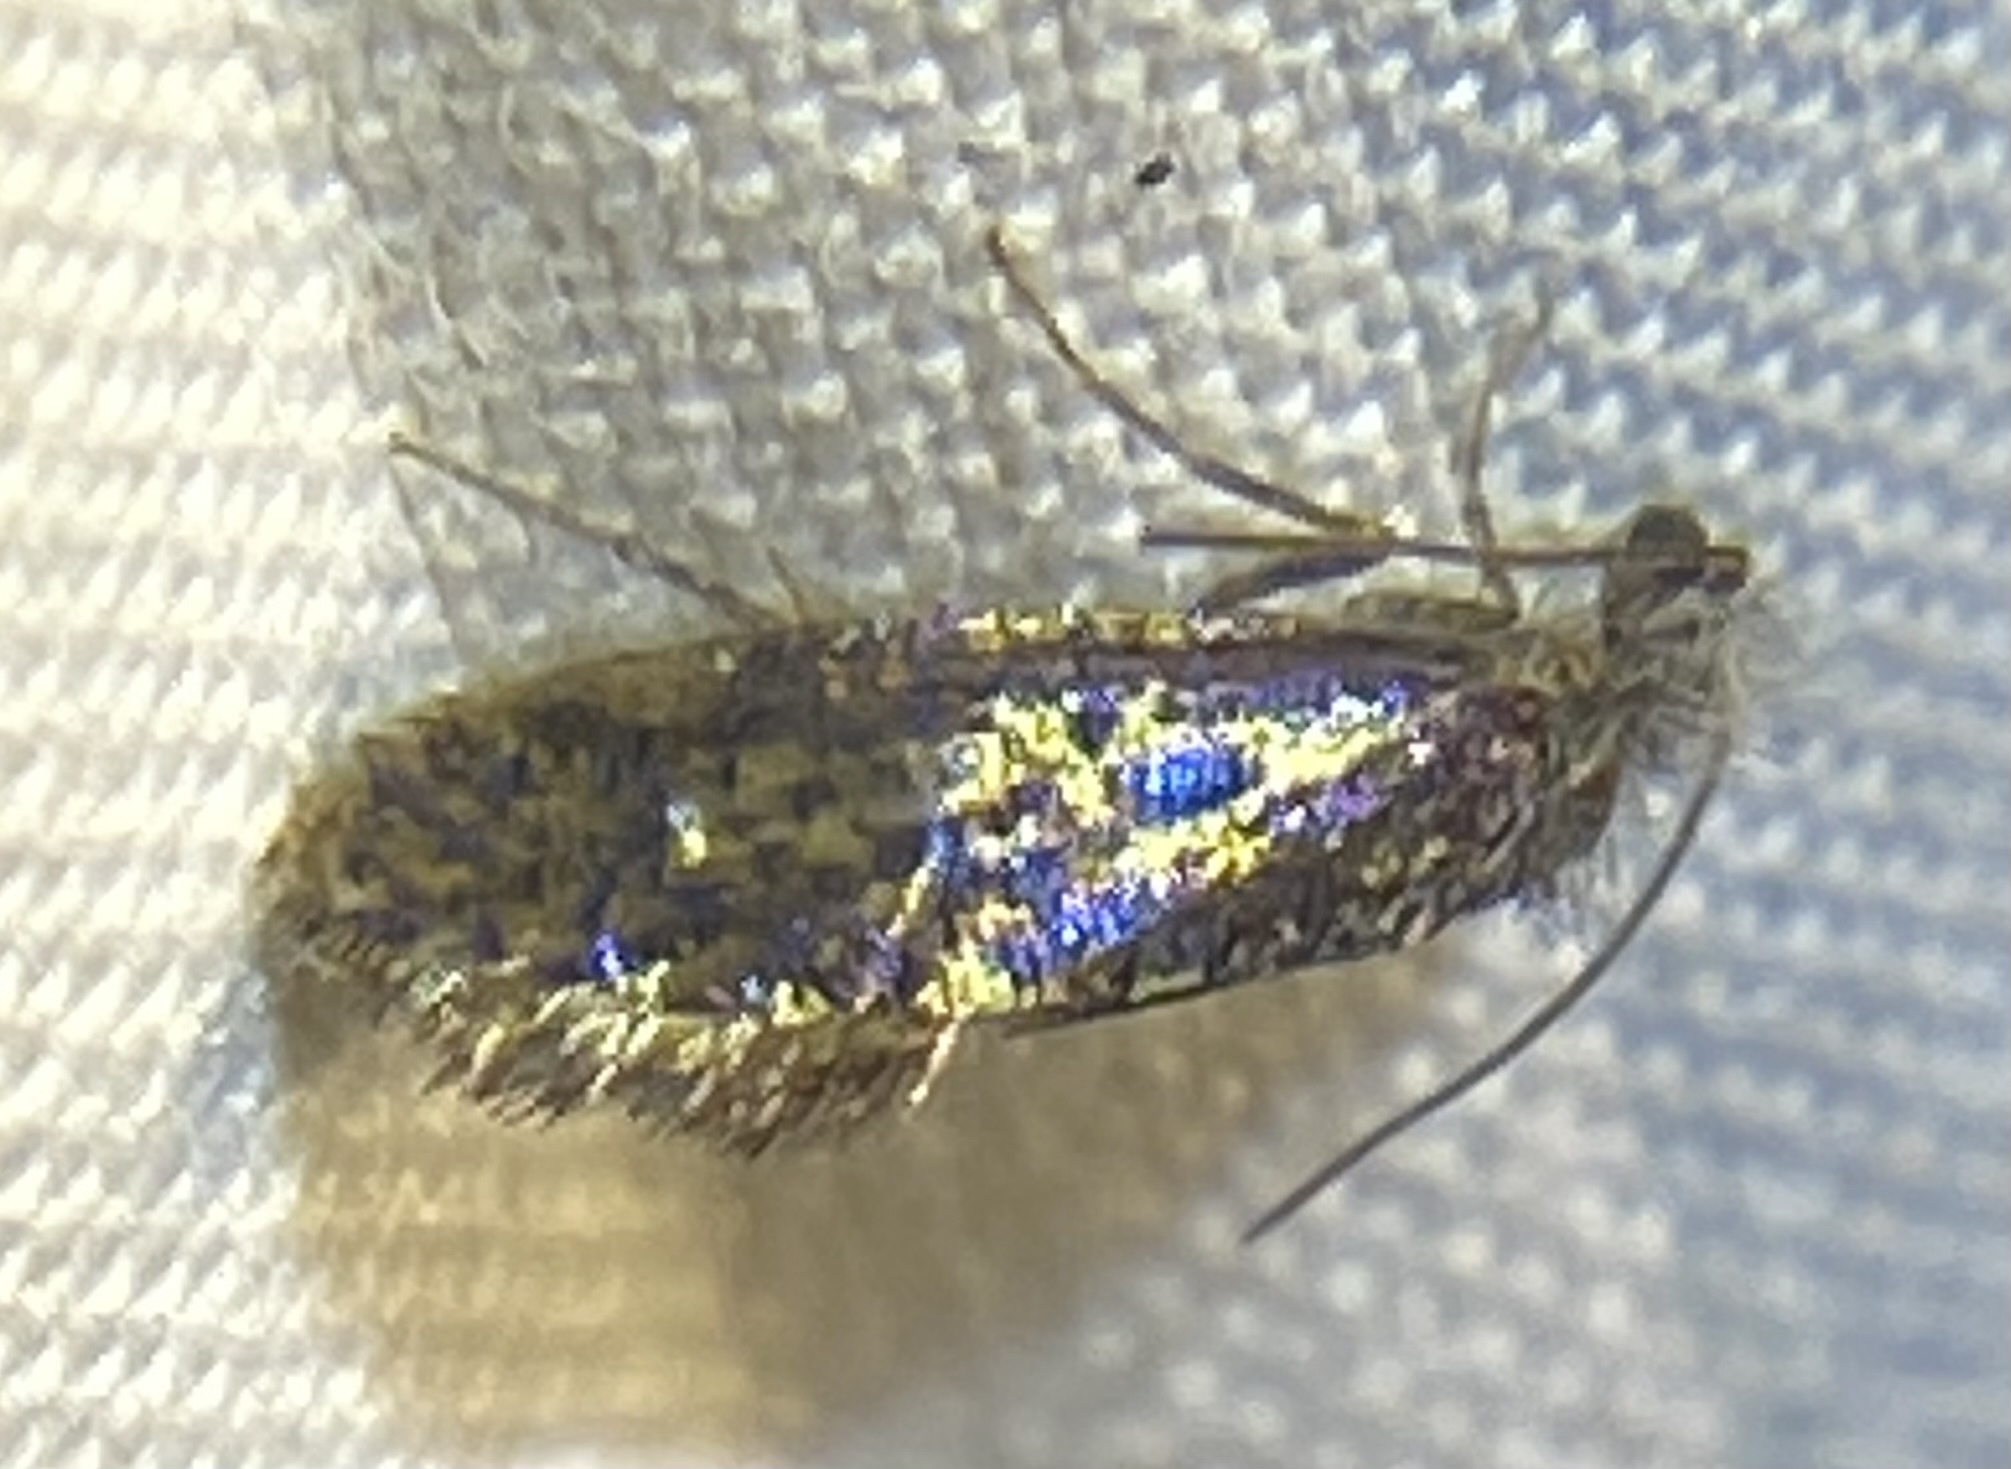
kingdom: Animalia
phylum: Arthropoda
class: Insecta
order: Lepidoptera
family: Eriocraniidae
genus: Dyseriocrania
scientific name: Dyseriocrania griseocapitella
